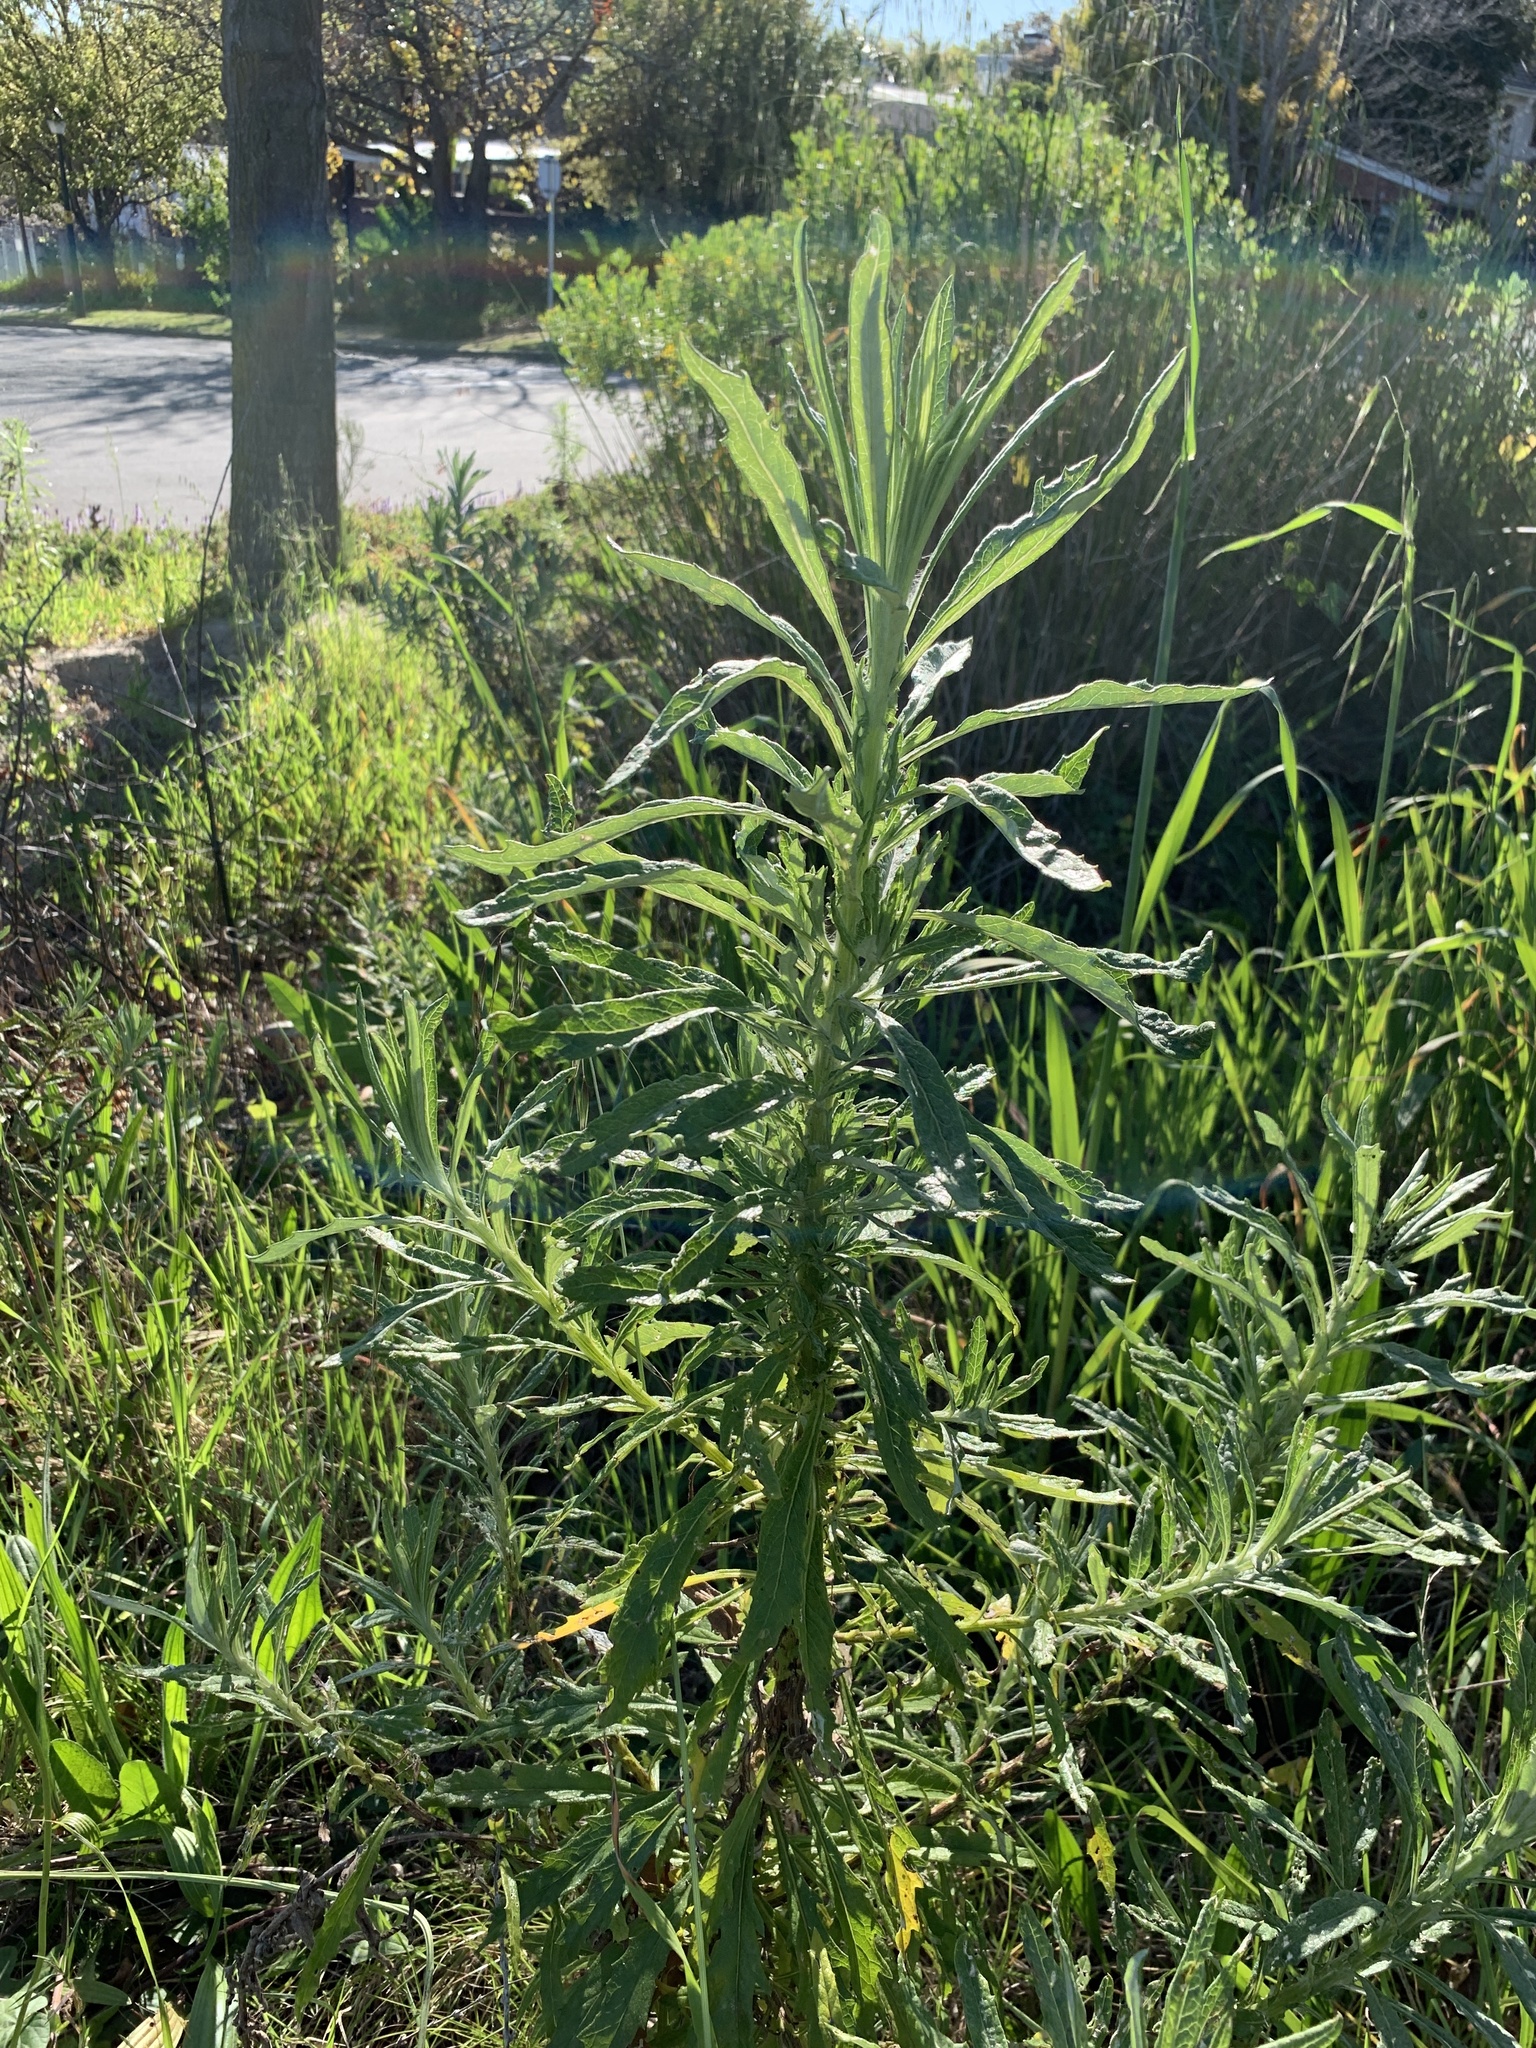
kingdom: Plantae
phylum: Tracheophyta
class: Magnoliopsida
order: Asterales
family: Asteraceae
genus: Senecio
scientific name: Senecio pterophorus
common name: Shoddy ragwort
